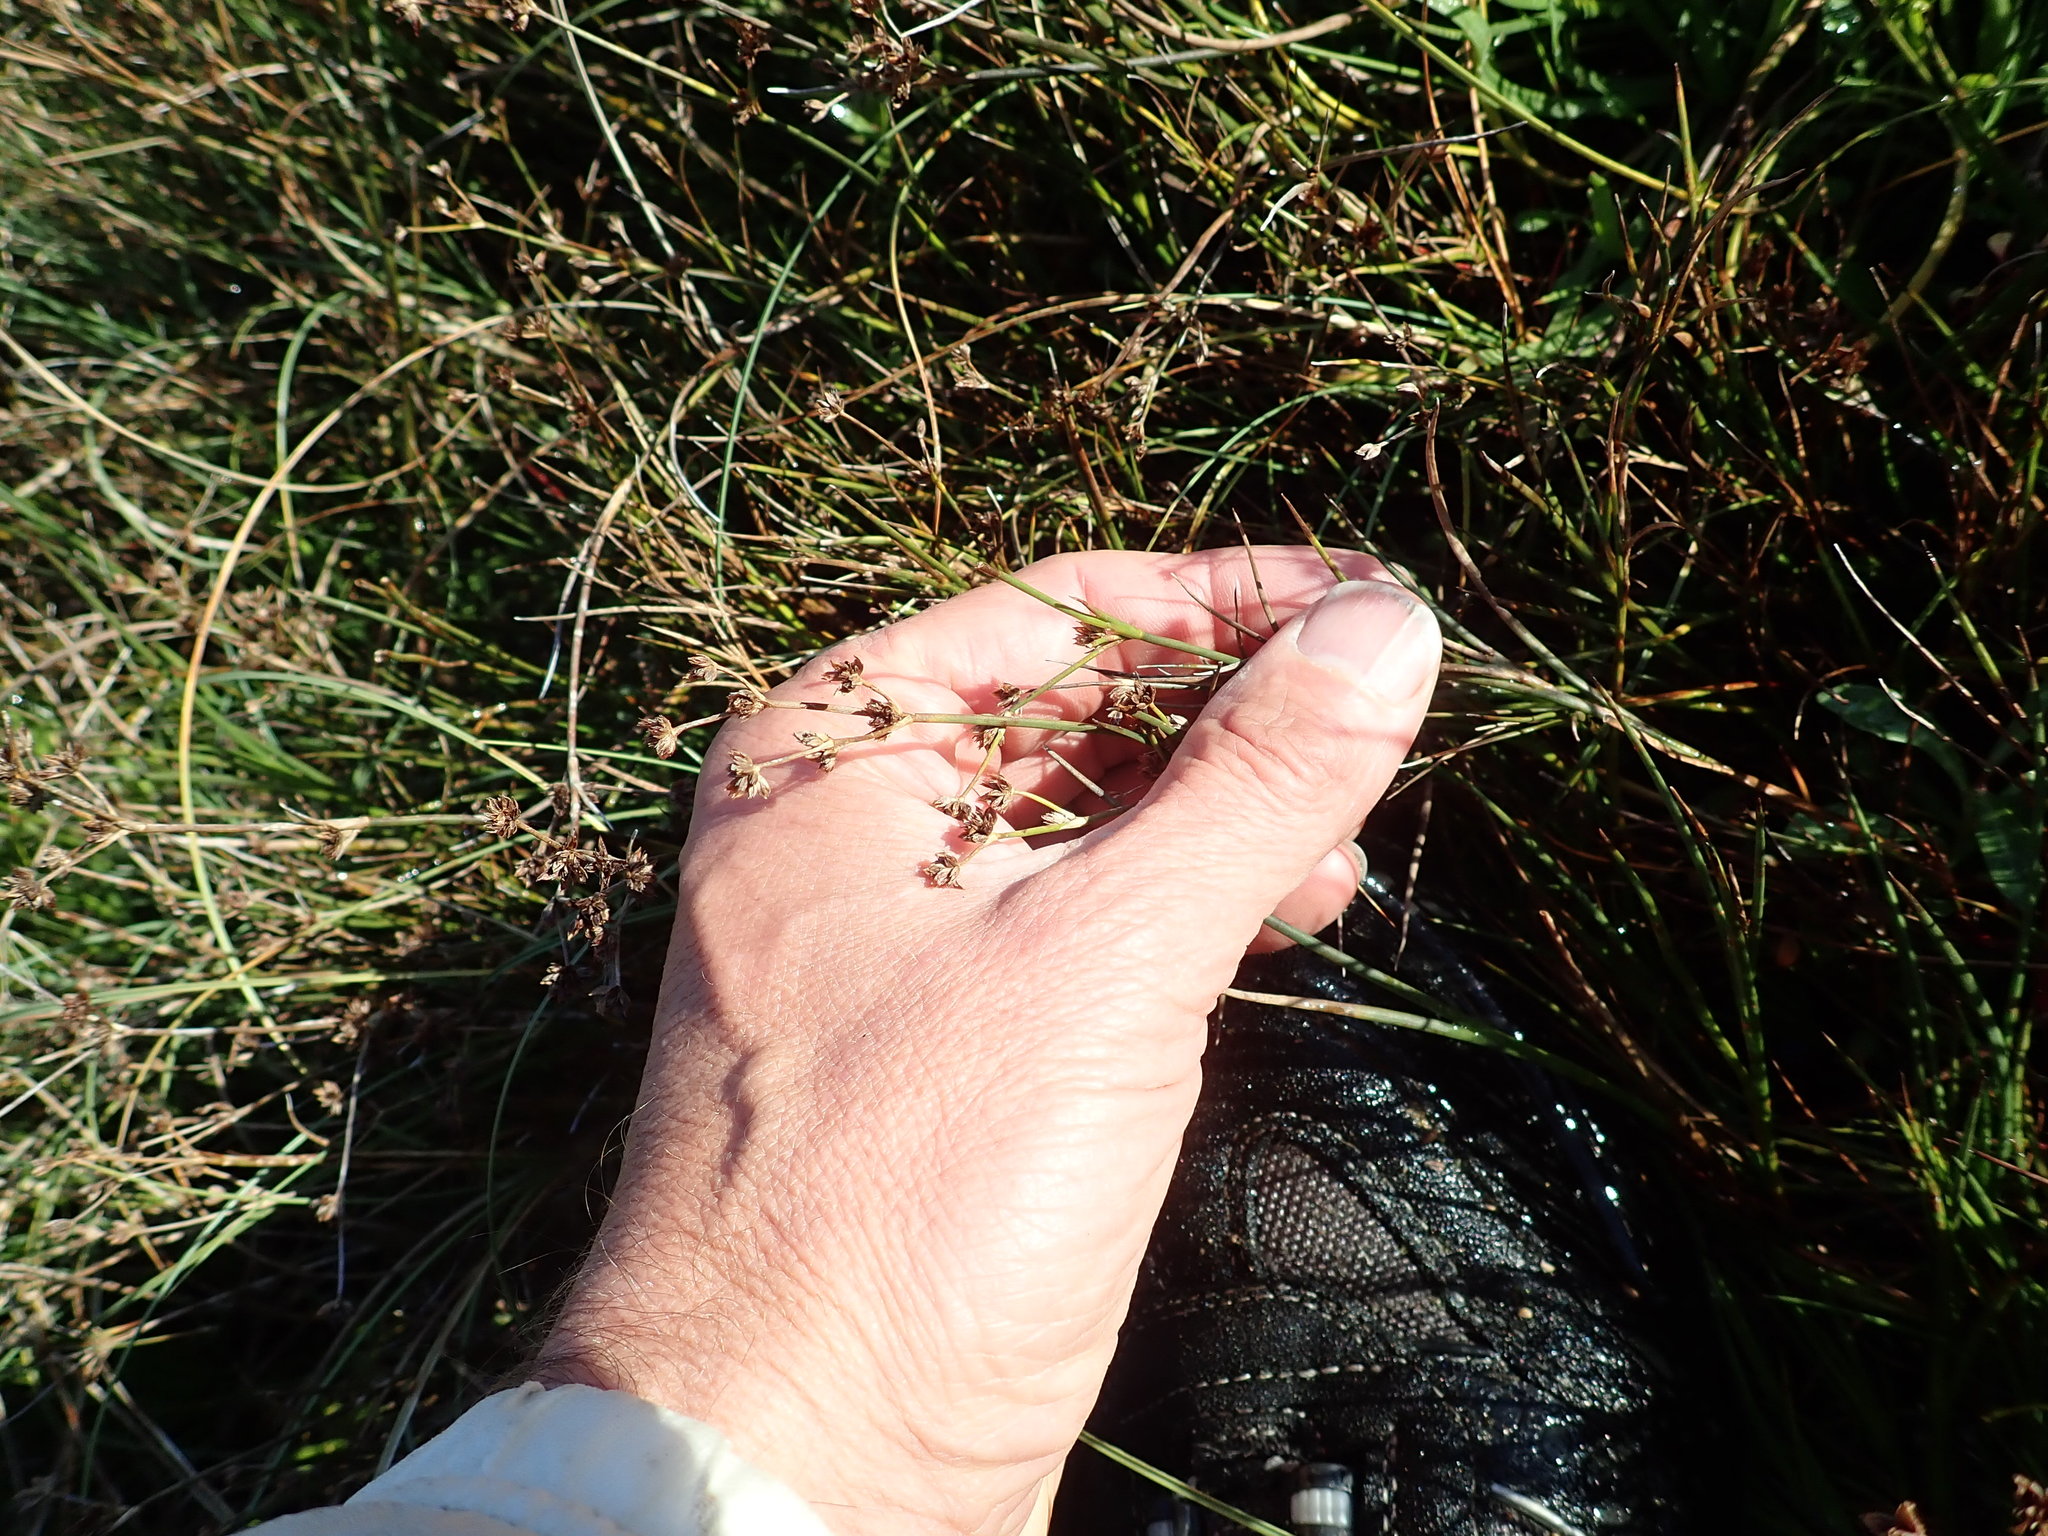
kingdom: Plantae
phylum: Tracheophyta
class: Liliopsida
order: Poales
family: Juncaceae
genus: Juncus
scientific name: Juncus articulatus
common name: Jointed rush
